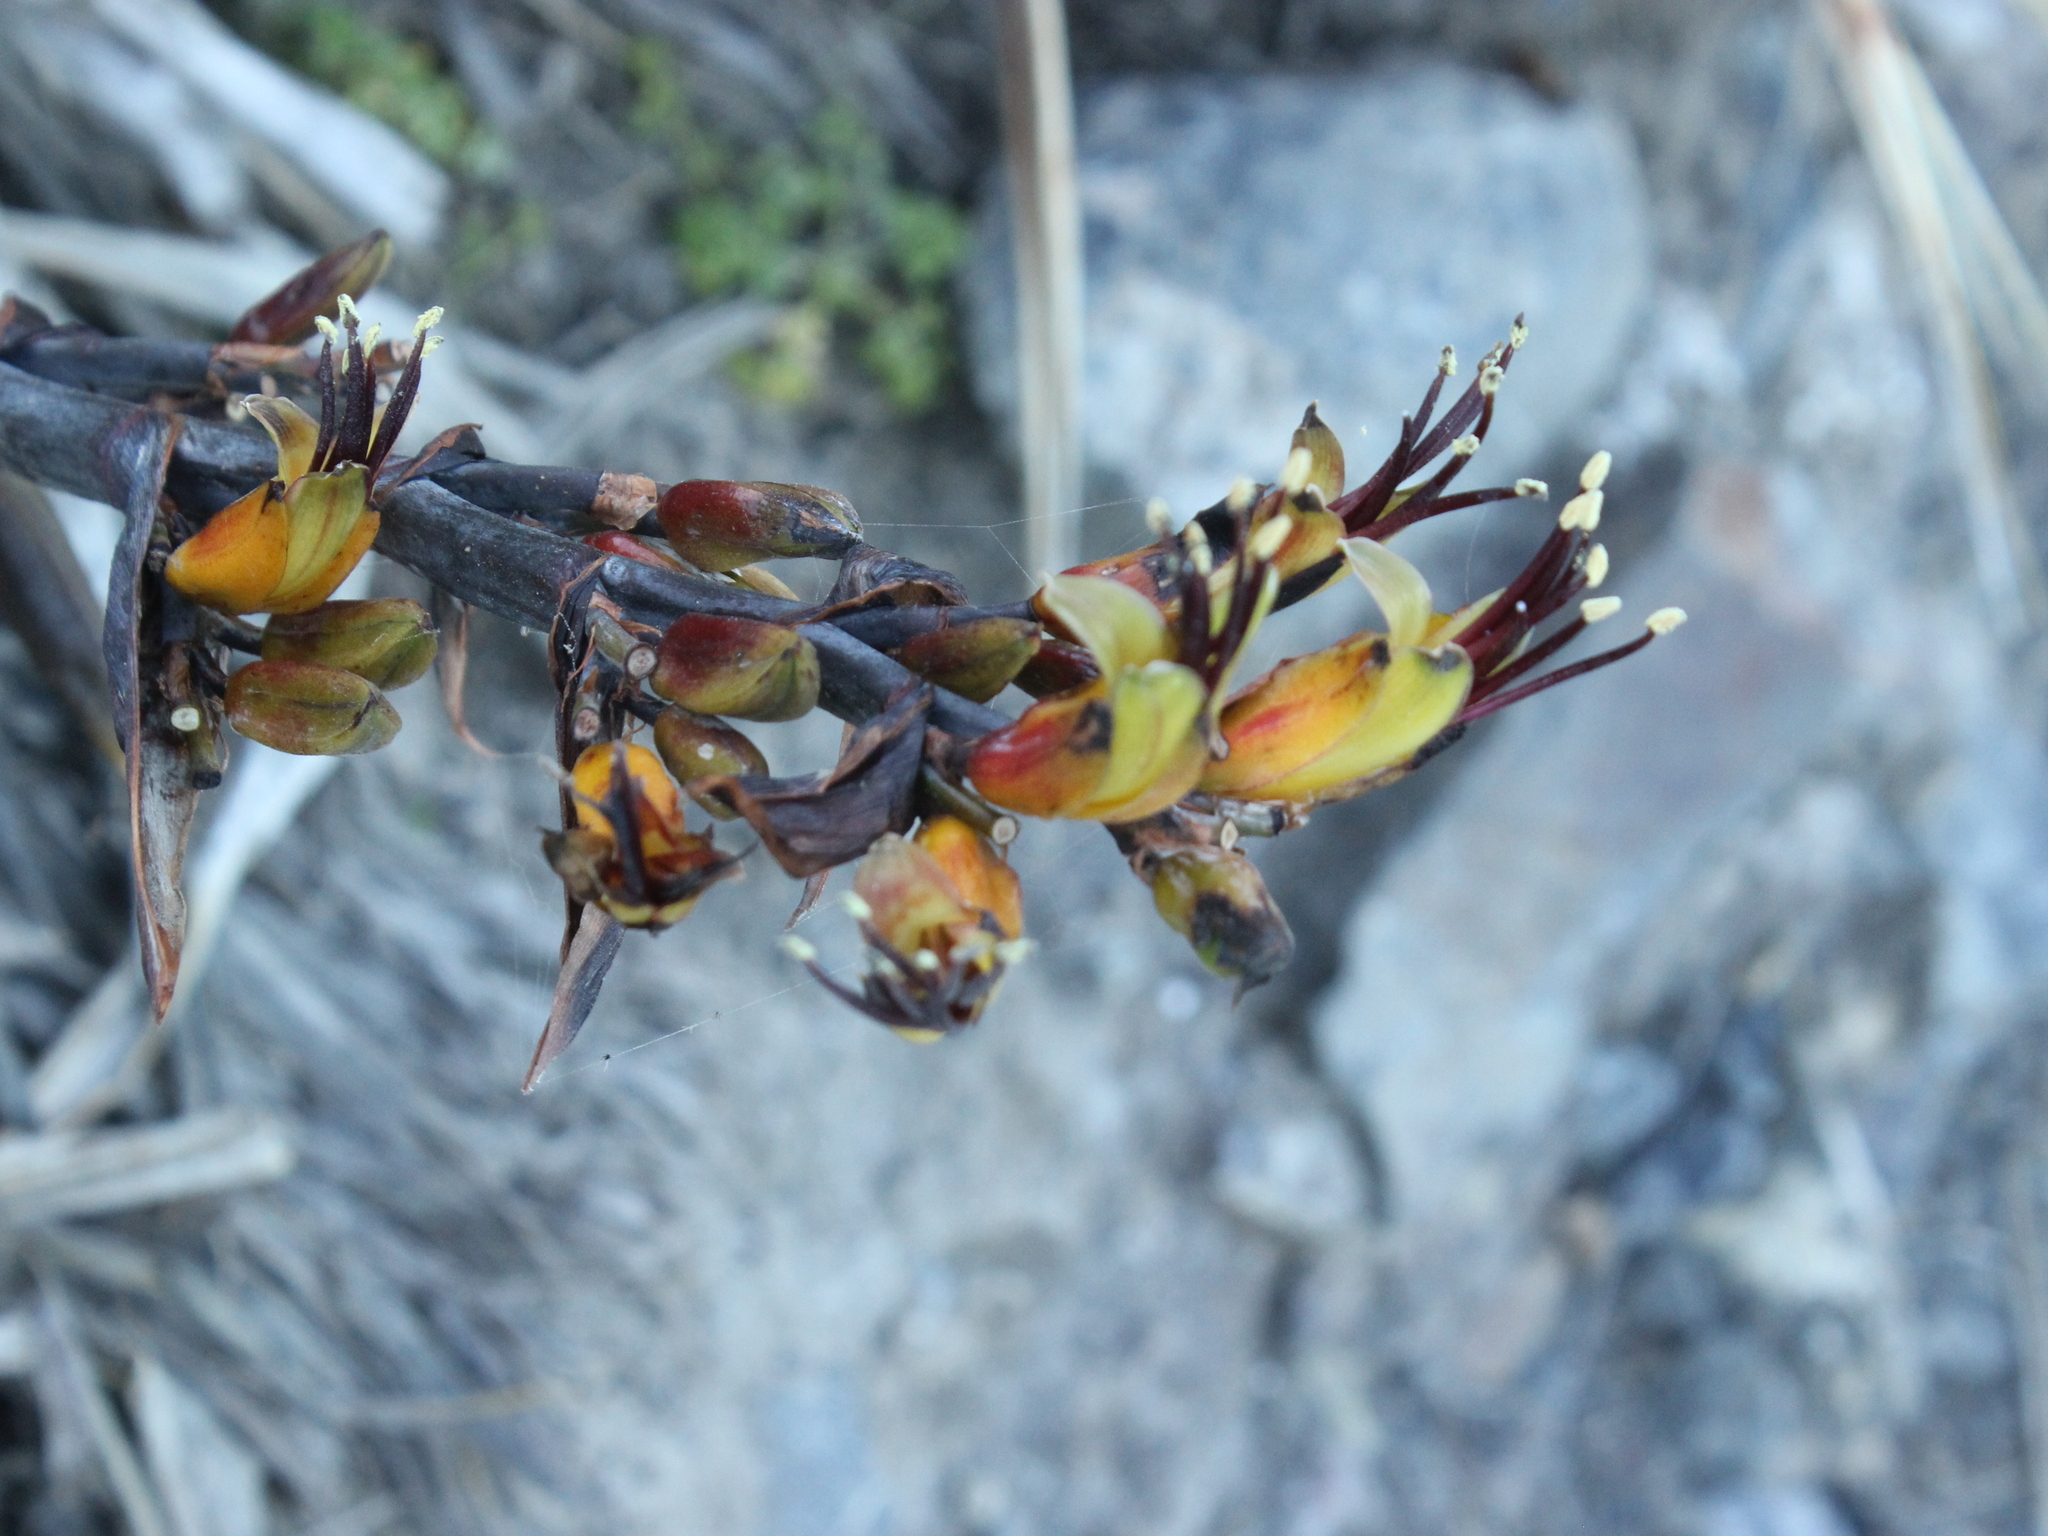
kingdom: Plantae
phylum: Tracheophyta
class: Liliopsida
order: Asparagales
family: Asphodelaceae
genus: Phormium
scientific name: Phormium colensoi
